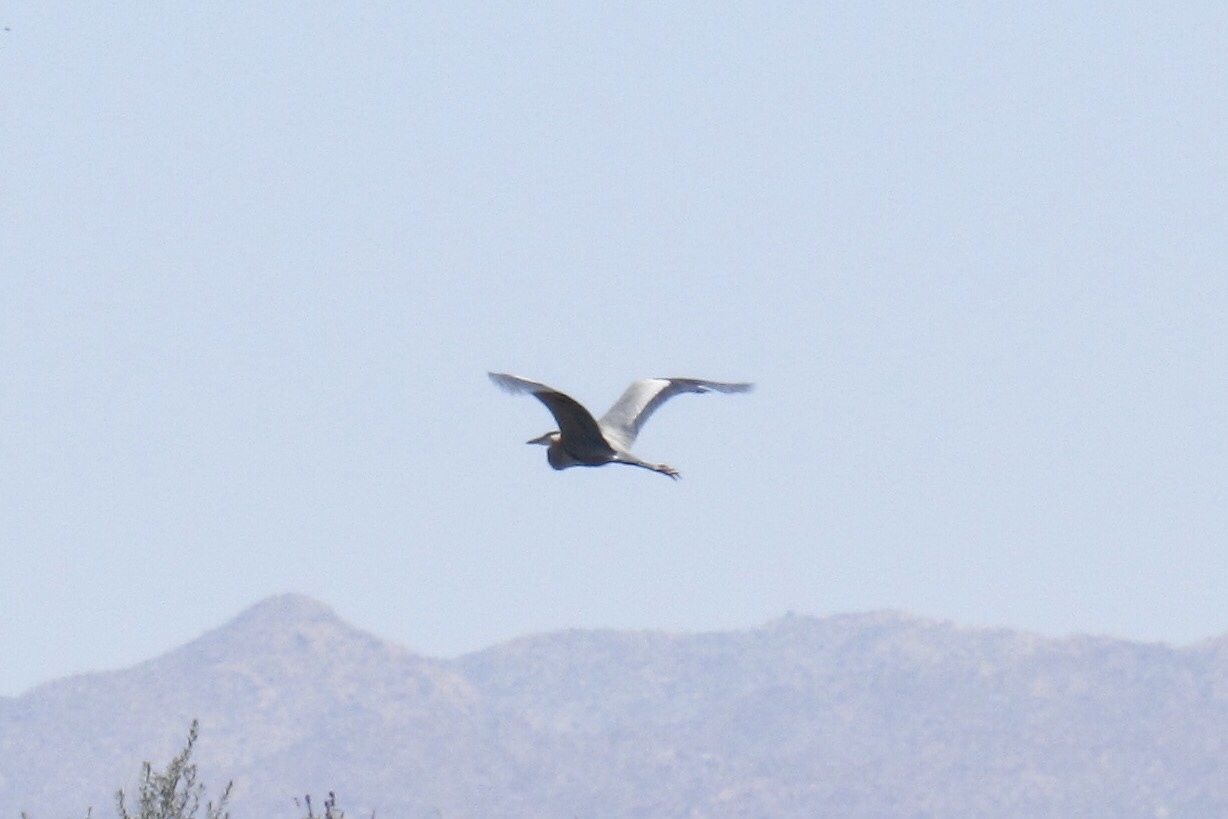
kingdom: Animalia
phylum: Chordata
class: Aves
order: Pelecaniformes
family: Ardeidae
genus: Ardea
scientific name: Ardea herodias
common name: Great blue heron
